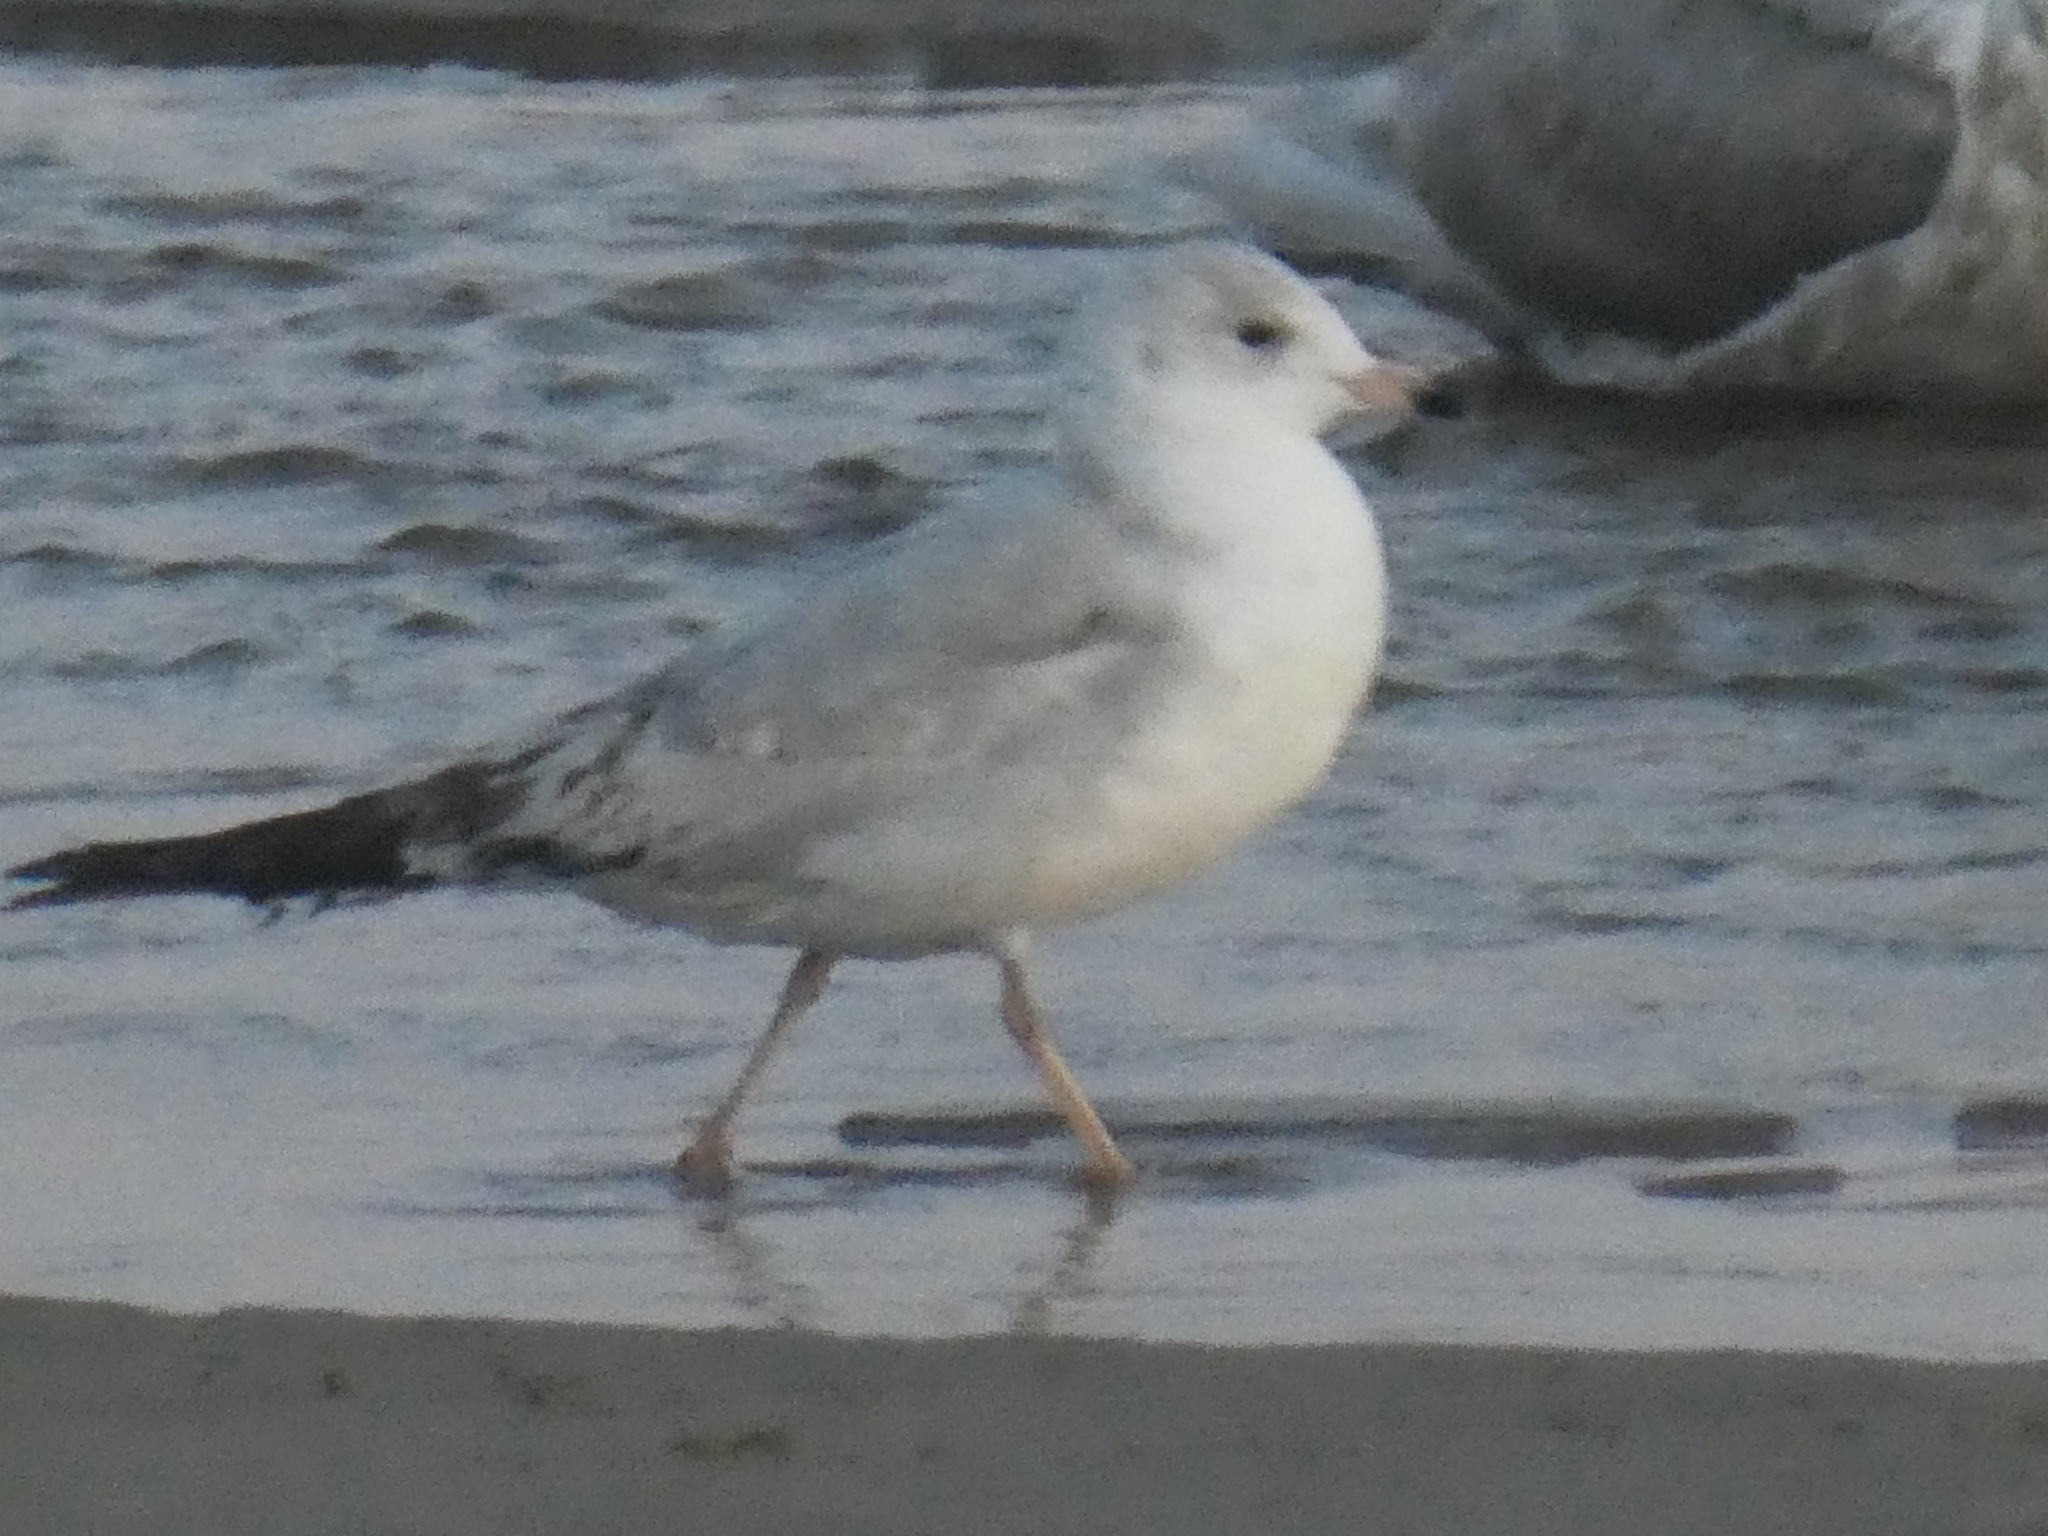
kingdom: Animalia
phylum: Chordata
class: Aves
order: Charadriiformes
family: Laridae
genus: Larus
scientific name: Larus delawarensis
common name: Ring-billed gull
